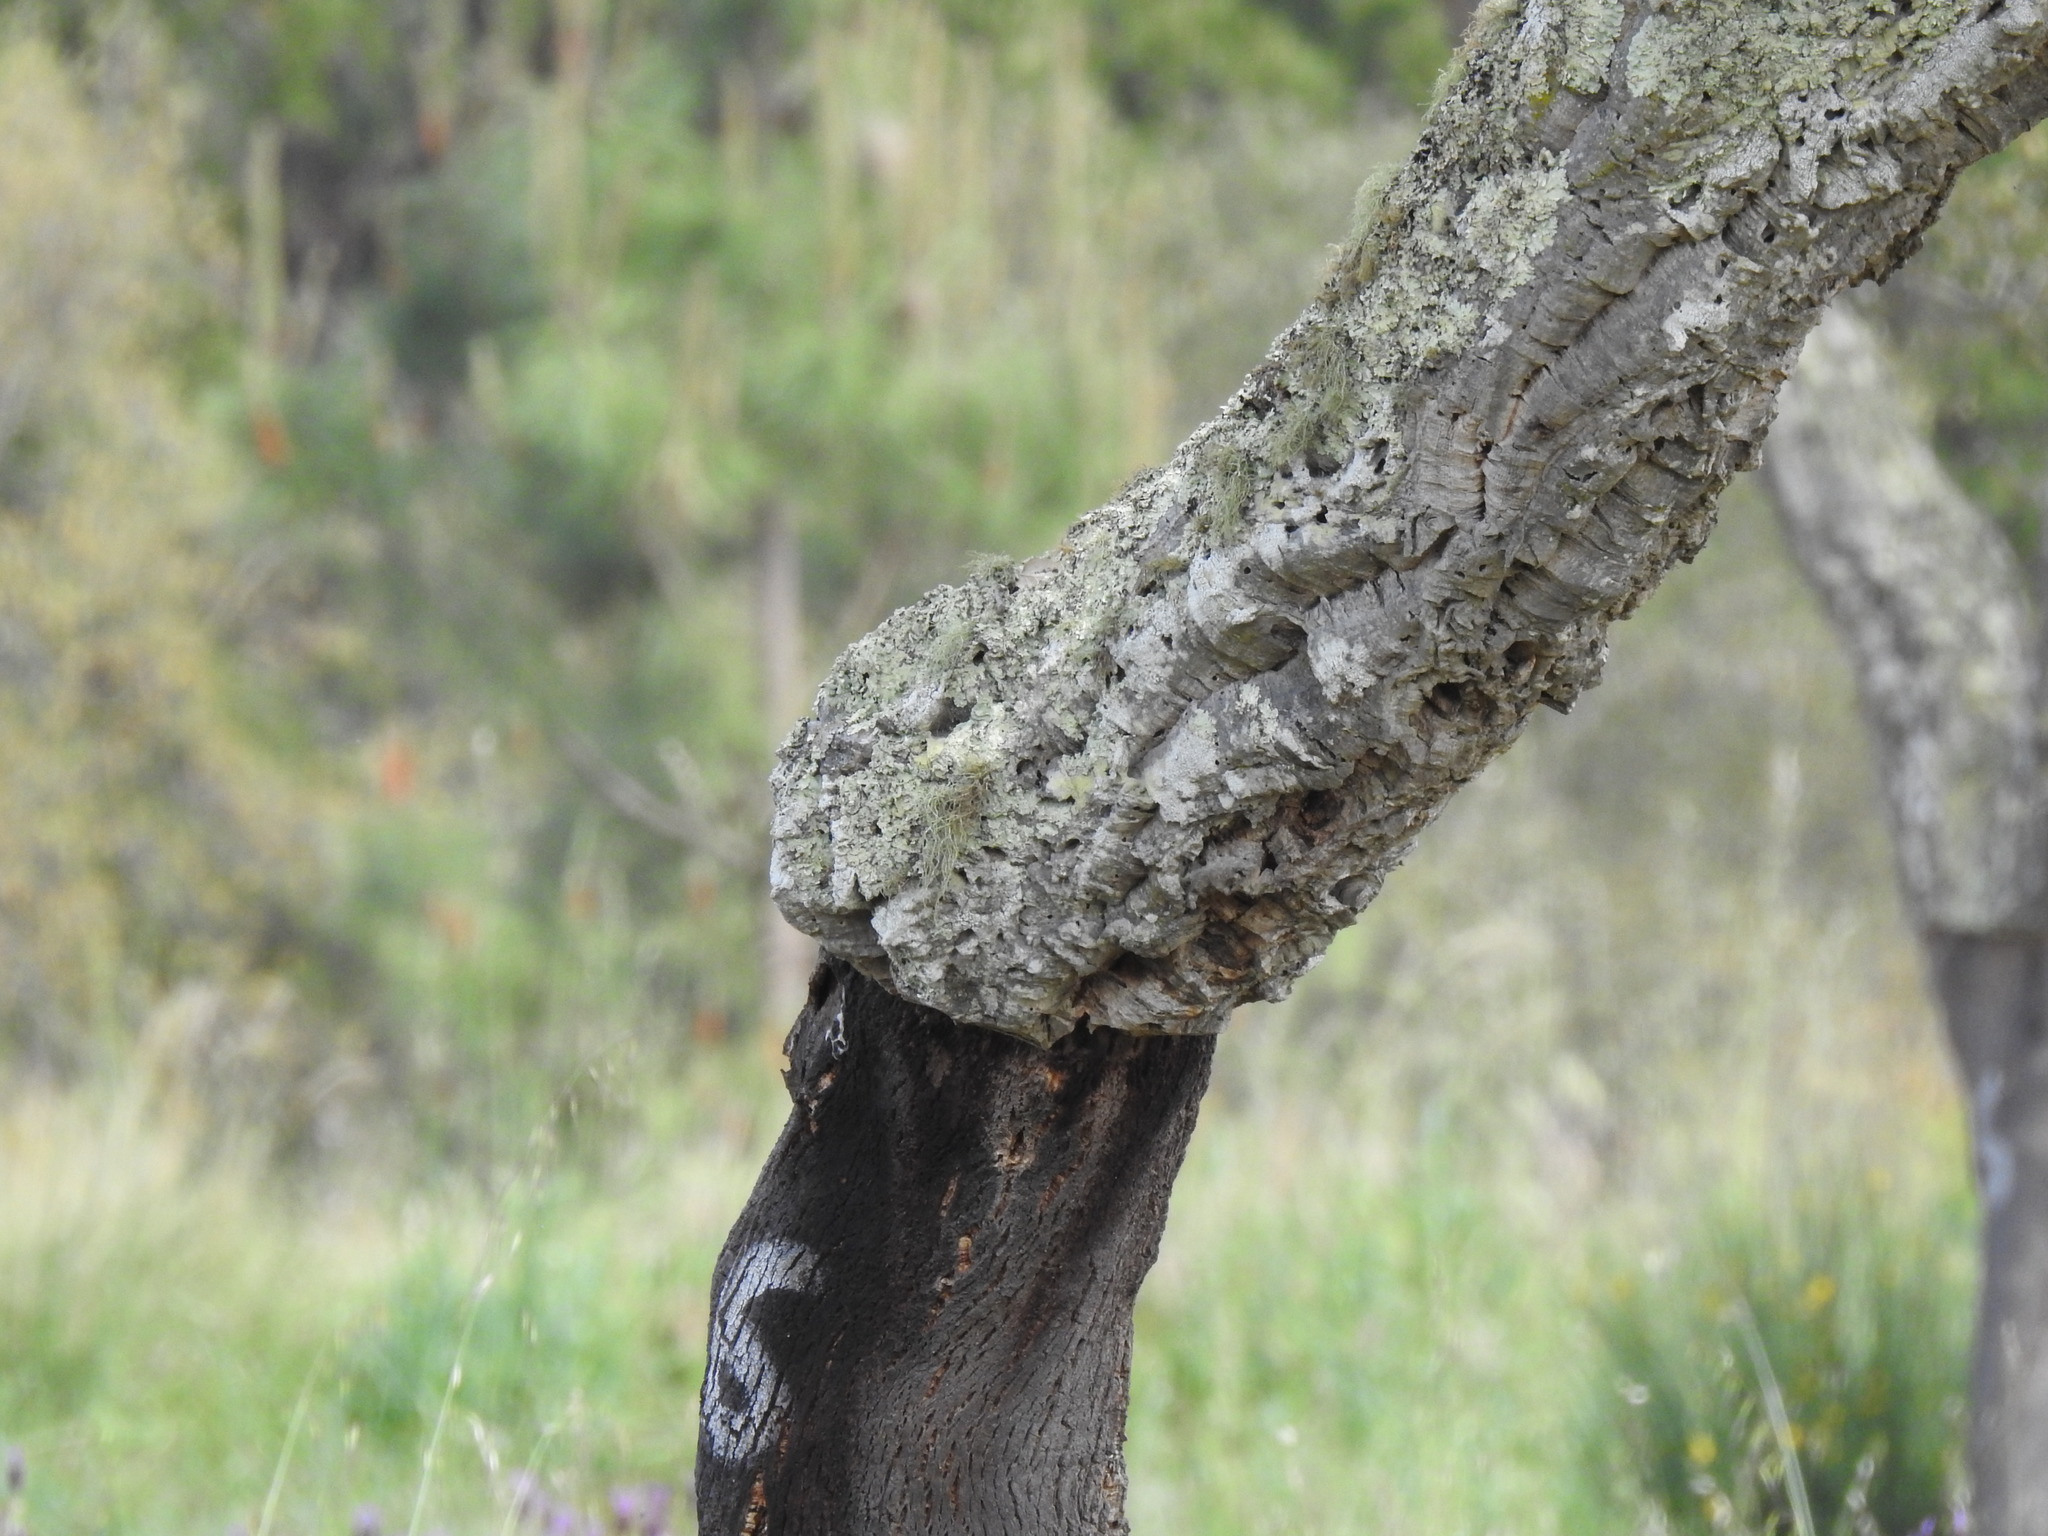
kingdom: Plantae
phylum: Tracheophyta
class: Magnoliopsida
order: Fagales
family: Fagaceae
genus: Quercus
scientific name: Quercus suber
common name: Cork oak
